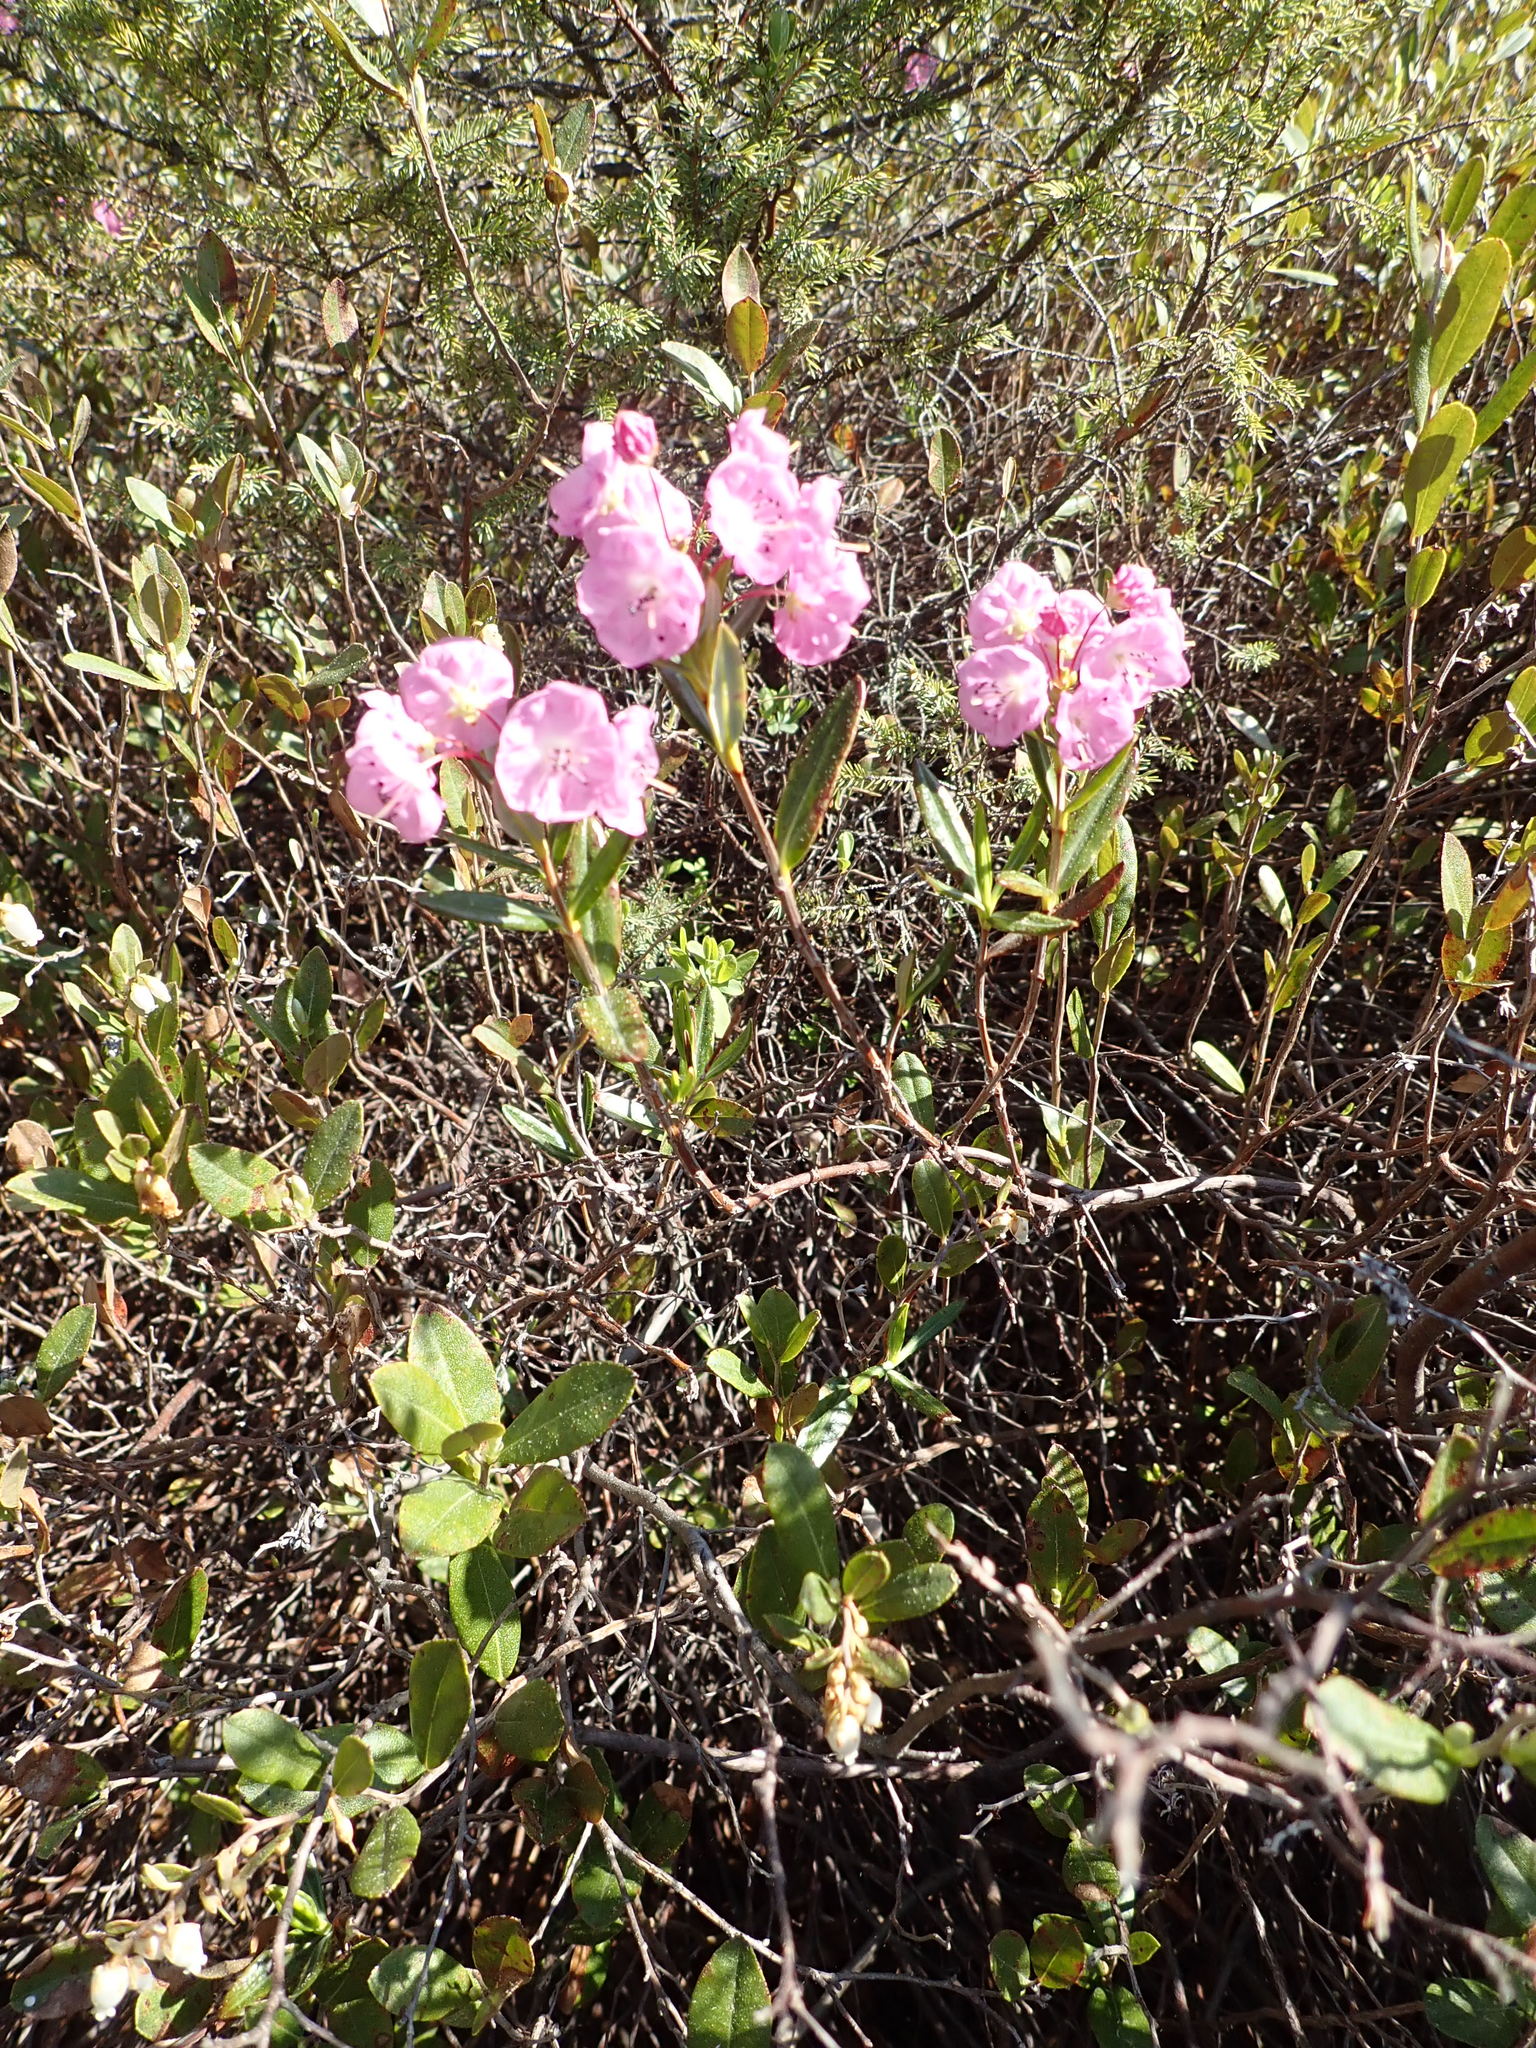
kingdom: Plantae
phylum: Tracheophyta
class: Magnoliopsida
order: Ericales
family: Ericaceae
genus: Kalmia
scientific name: Kalmia polifolia
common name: Bog-laurel
